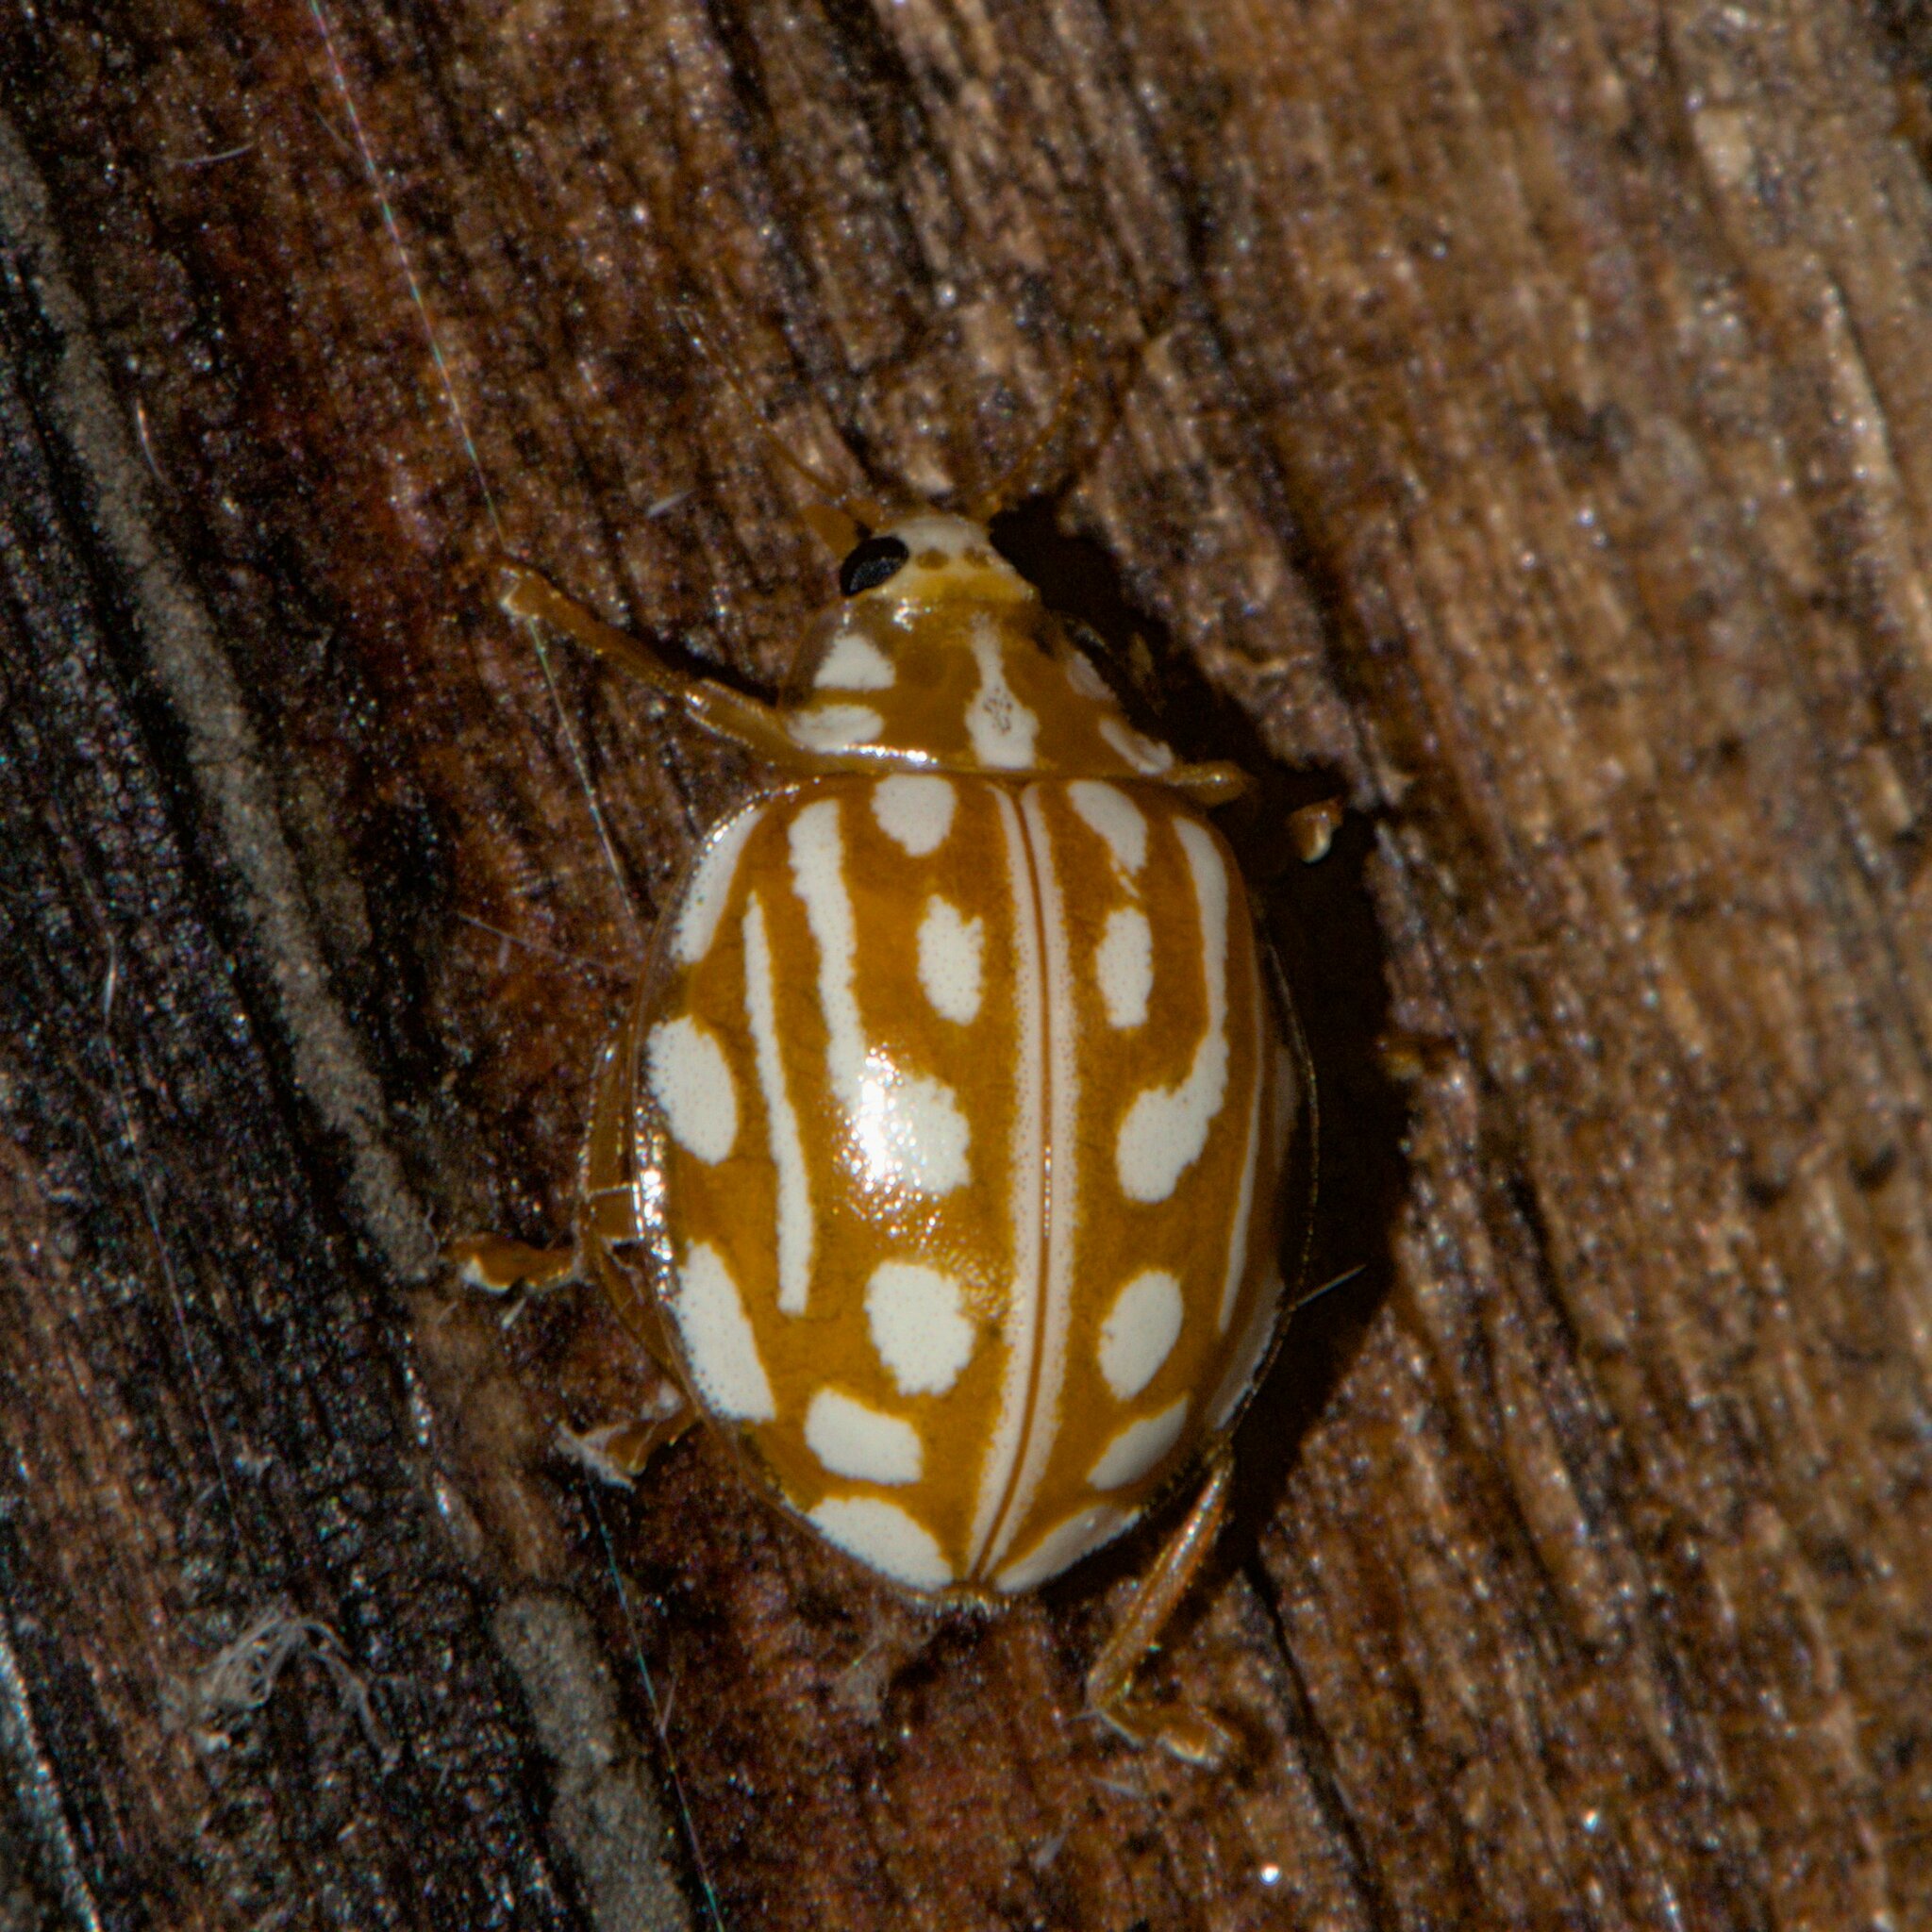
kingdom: Animalia
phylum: Arthropoda
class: Insecta
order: Coleoptera
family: Coccinellidae
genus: Halyzia
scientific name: Halyzia sanscrita
